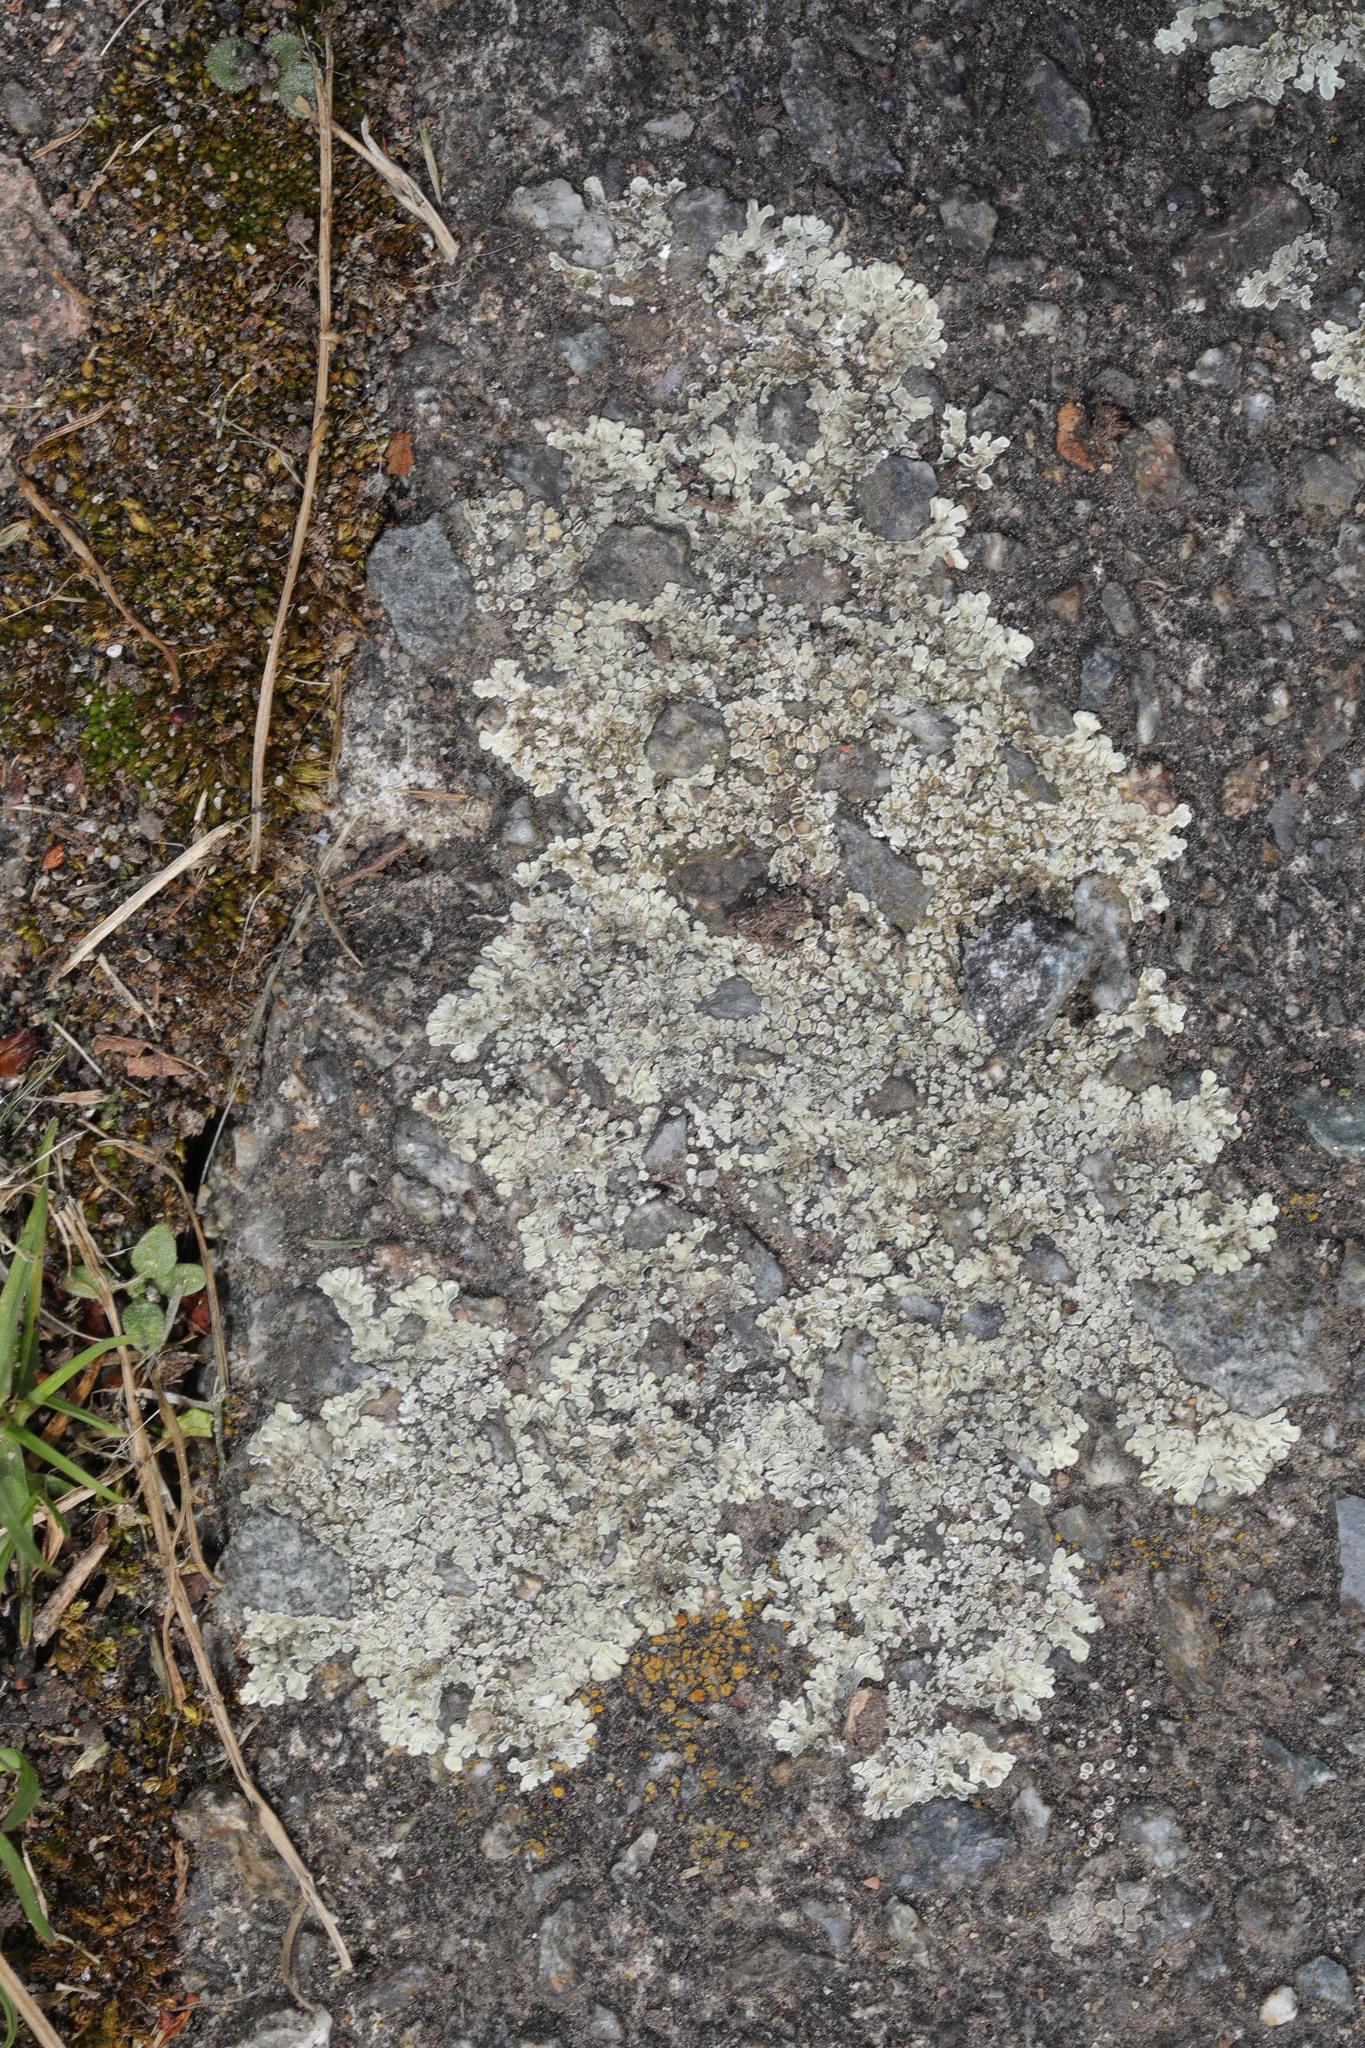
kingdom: Fungi
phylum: Ascomycota
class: Lecanoromycetes
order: Lecanorales
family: Lecanoraceae
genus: Protoparmeliopsis
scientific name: Protoparmeliopsis muralis
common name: Stonewall rim lichen
